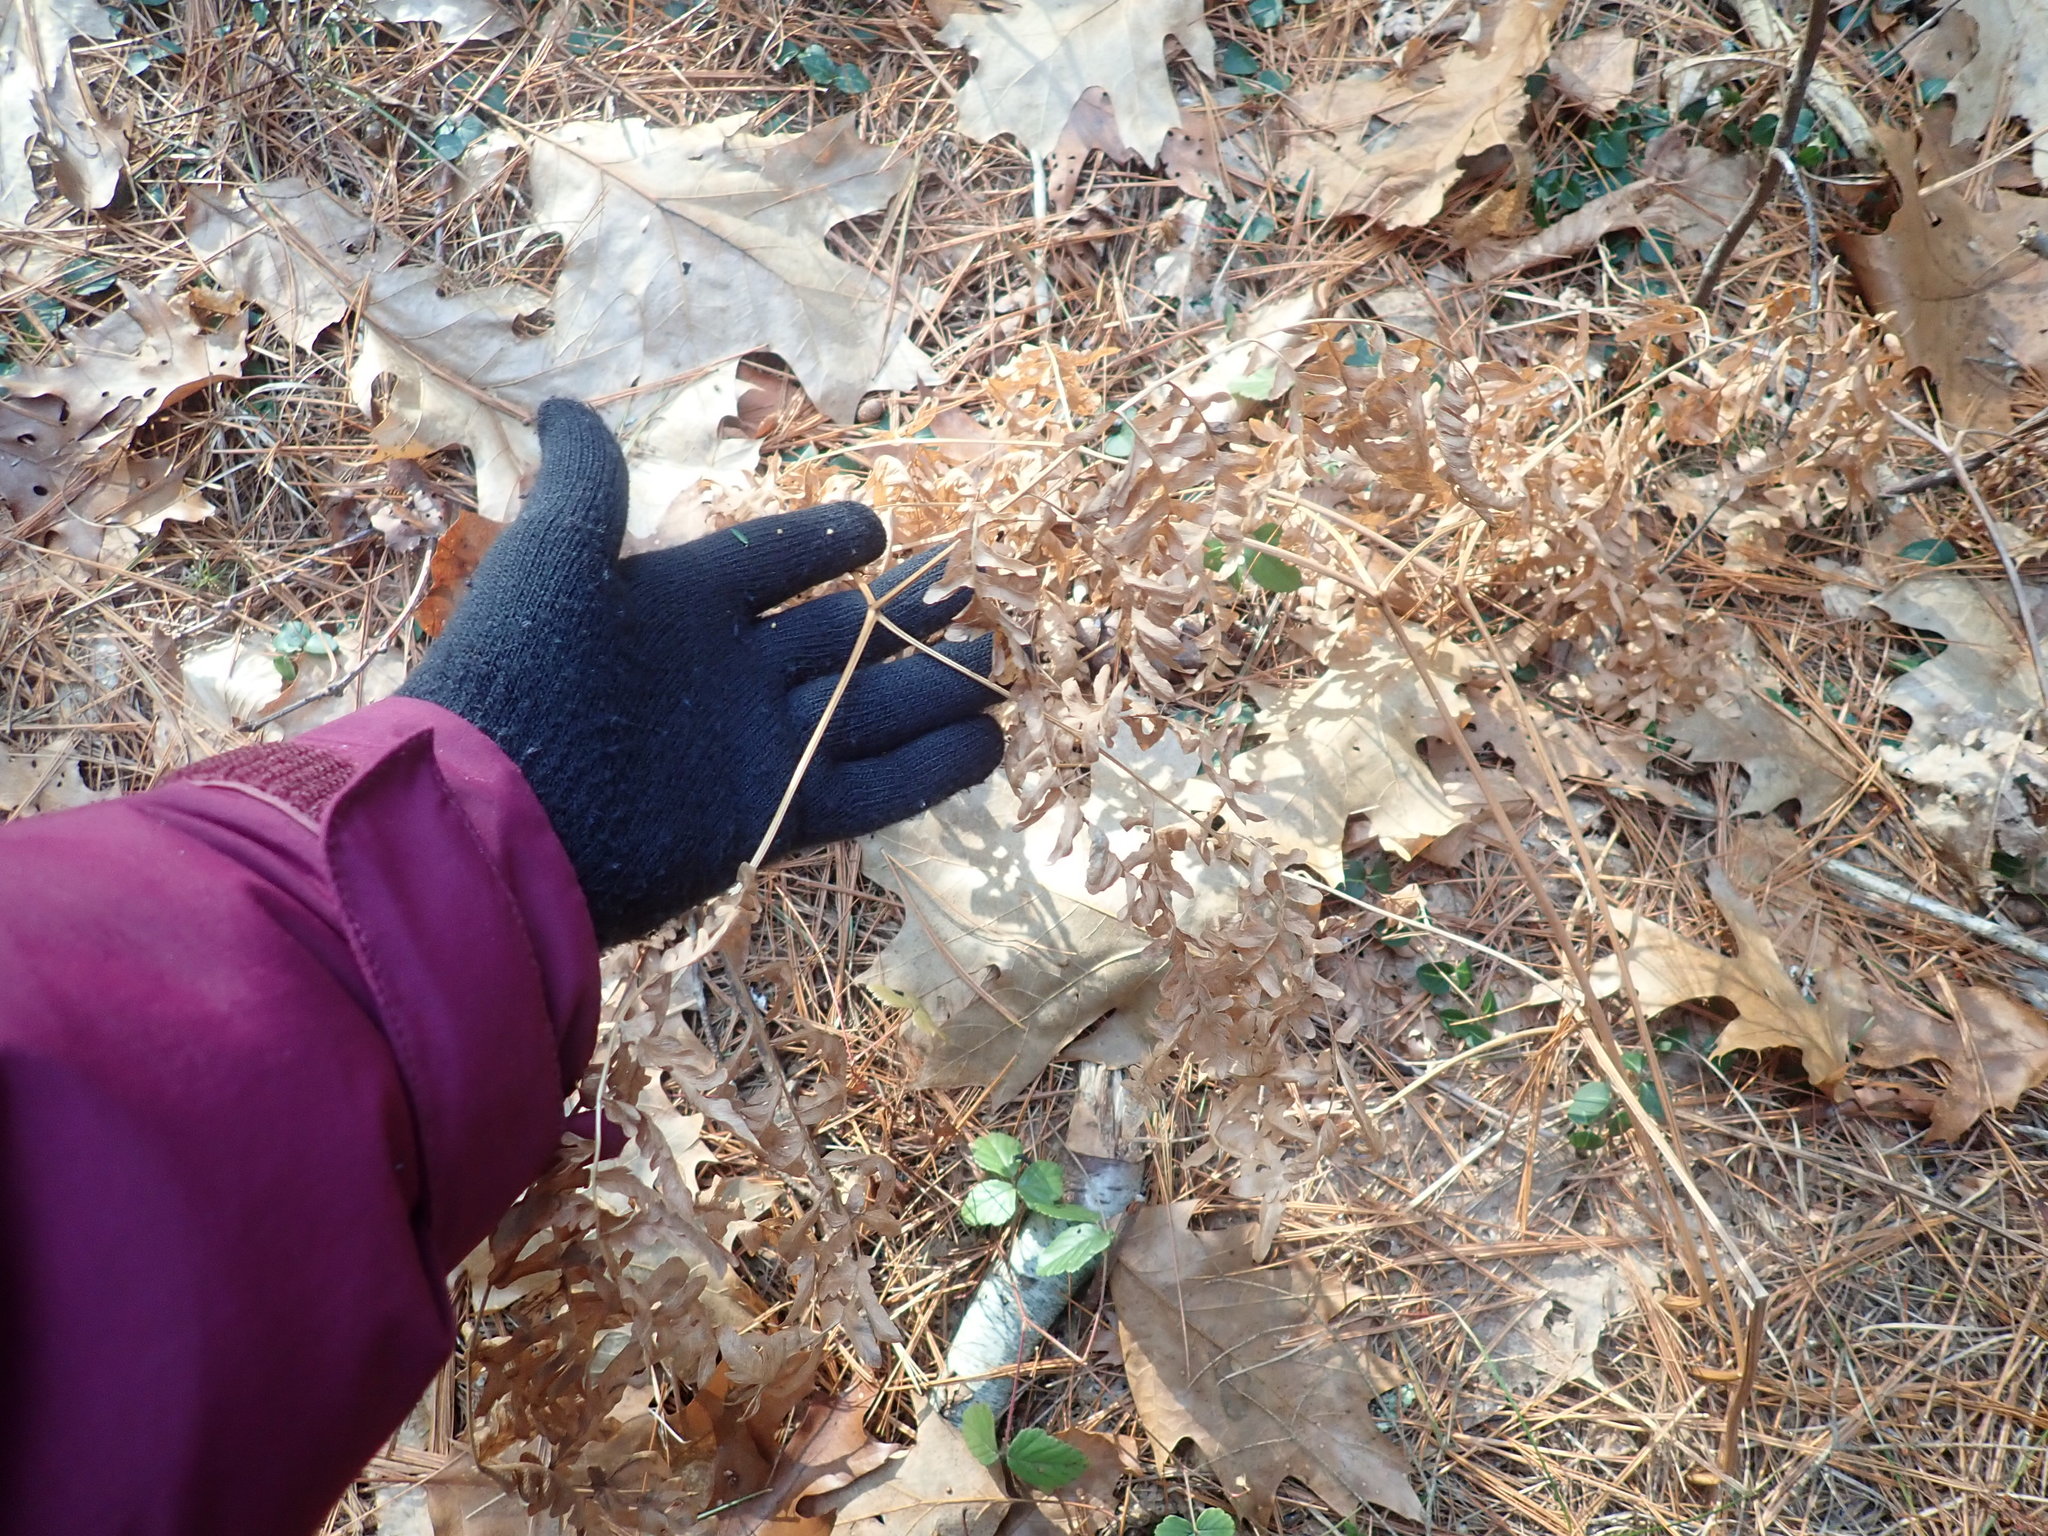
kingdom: Plantae
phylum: Tracheophyta
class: Polypodiopsida
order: Polypodiales
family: Dennstaedtiaceae
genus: Pteridium
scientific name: Pteridium aquilinum
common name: Bracken
